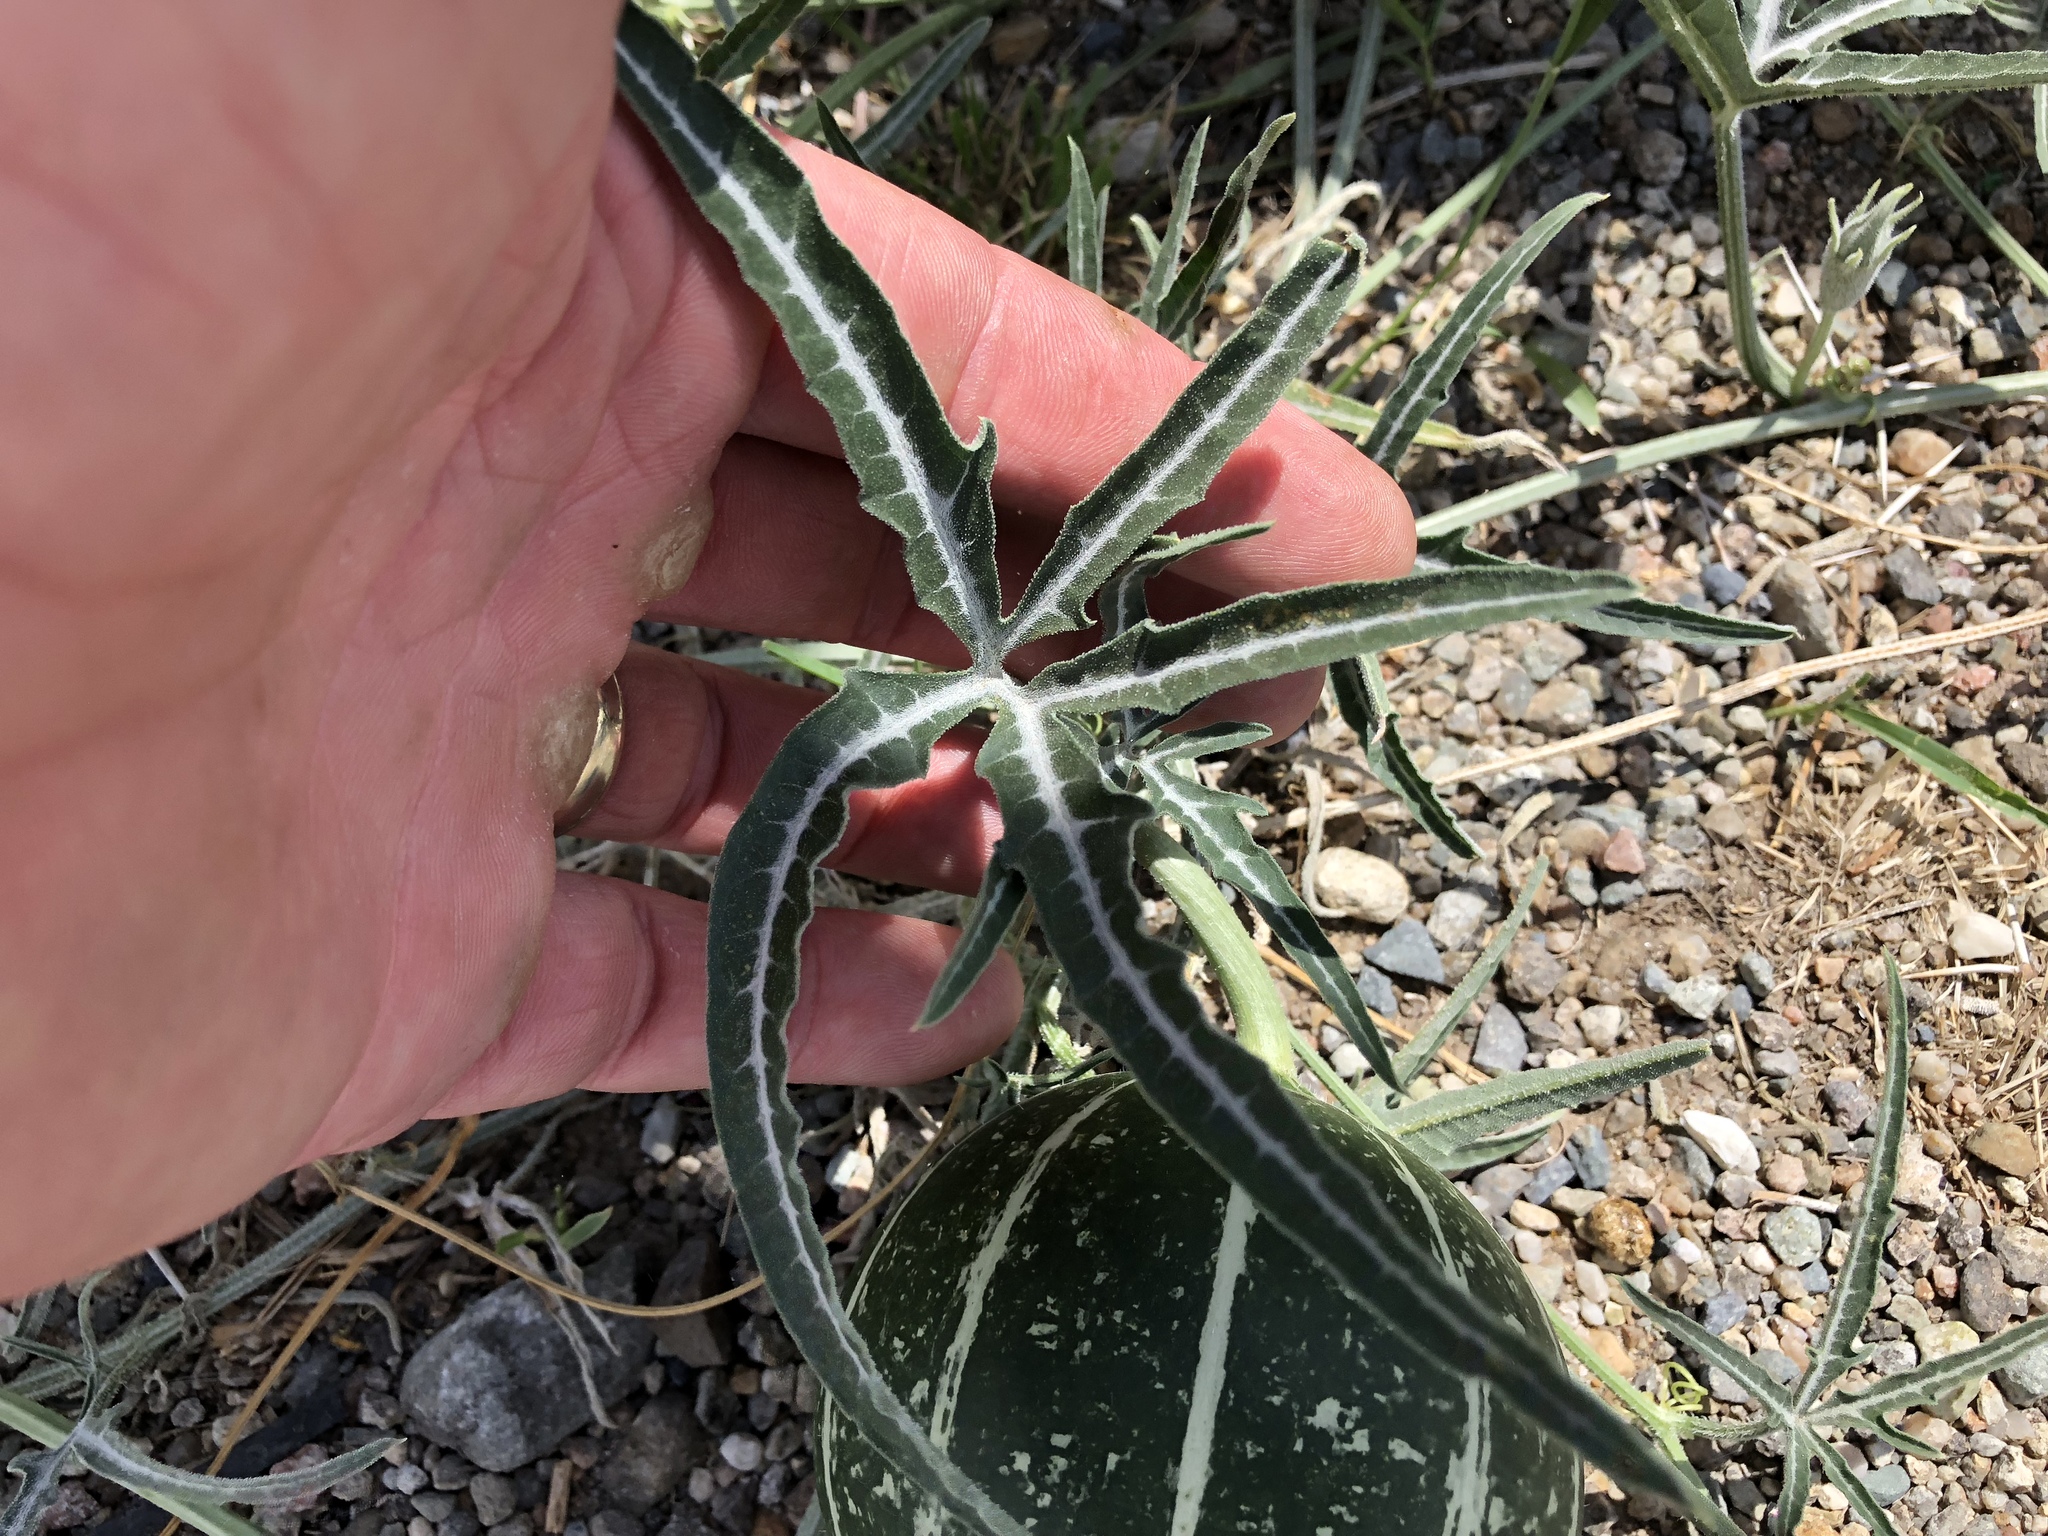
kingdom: Plantae
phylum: Tracheophyta
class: Magnoliopsida
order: Cucurbitales
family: Cucurbitaceae
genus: Cucurbita
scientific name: Cucurbita digitata
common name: Finger-leaf gourd
